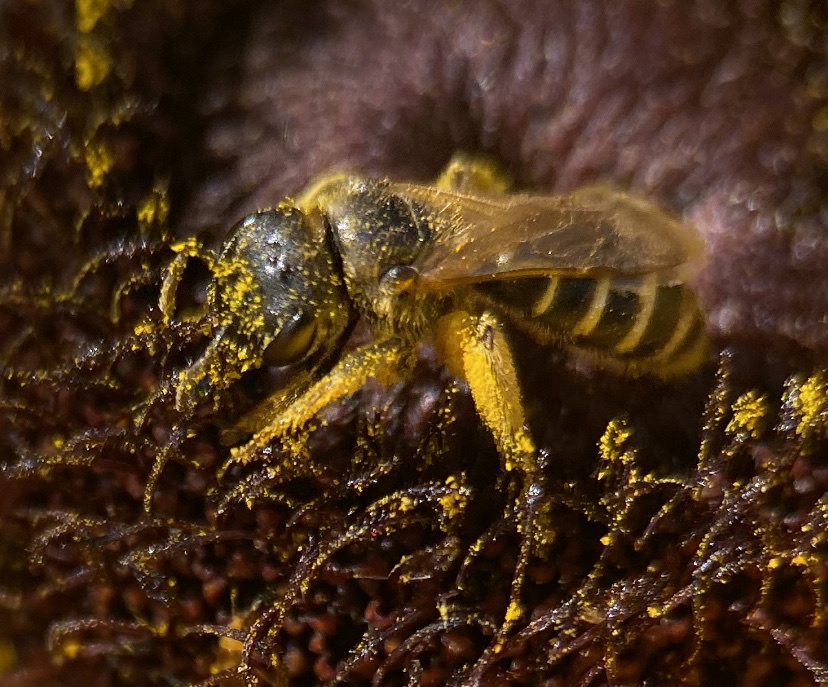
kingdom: Animalia
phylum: Arthropoda
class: Insecta
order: Hymenoptera
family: Halictidae
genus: Halictus
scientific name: Halictus ligatus
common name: Ligated furrow bee
